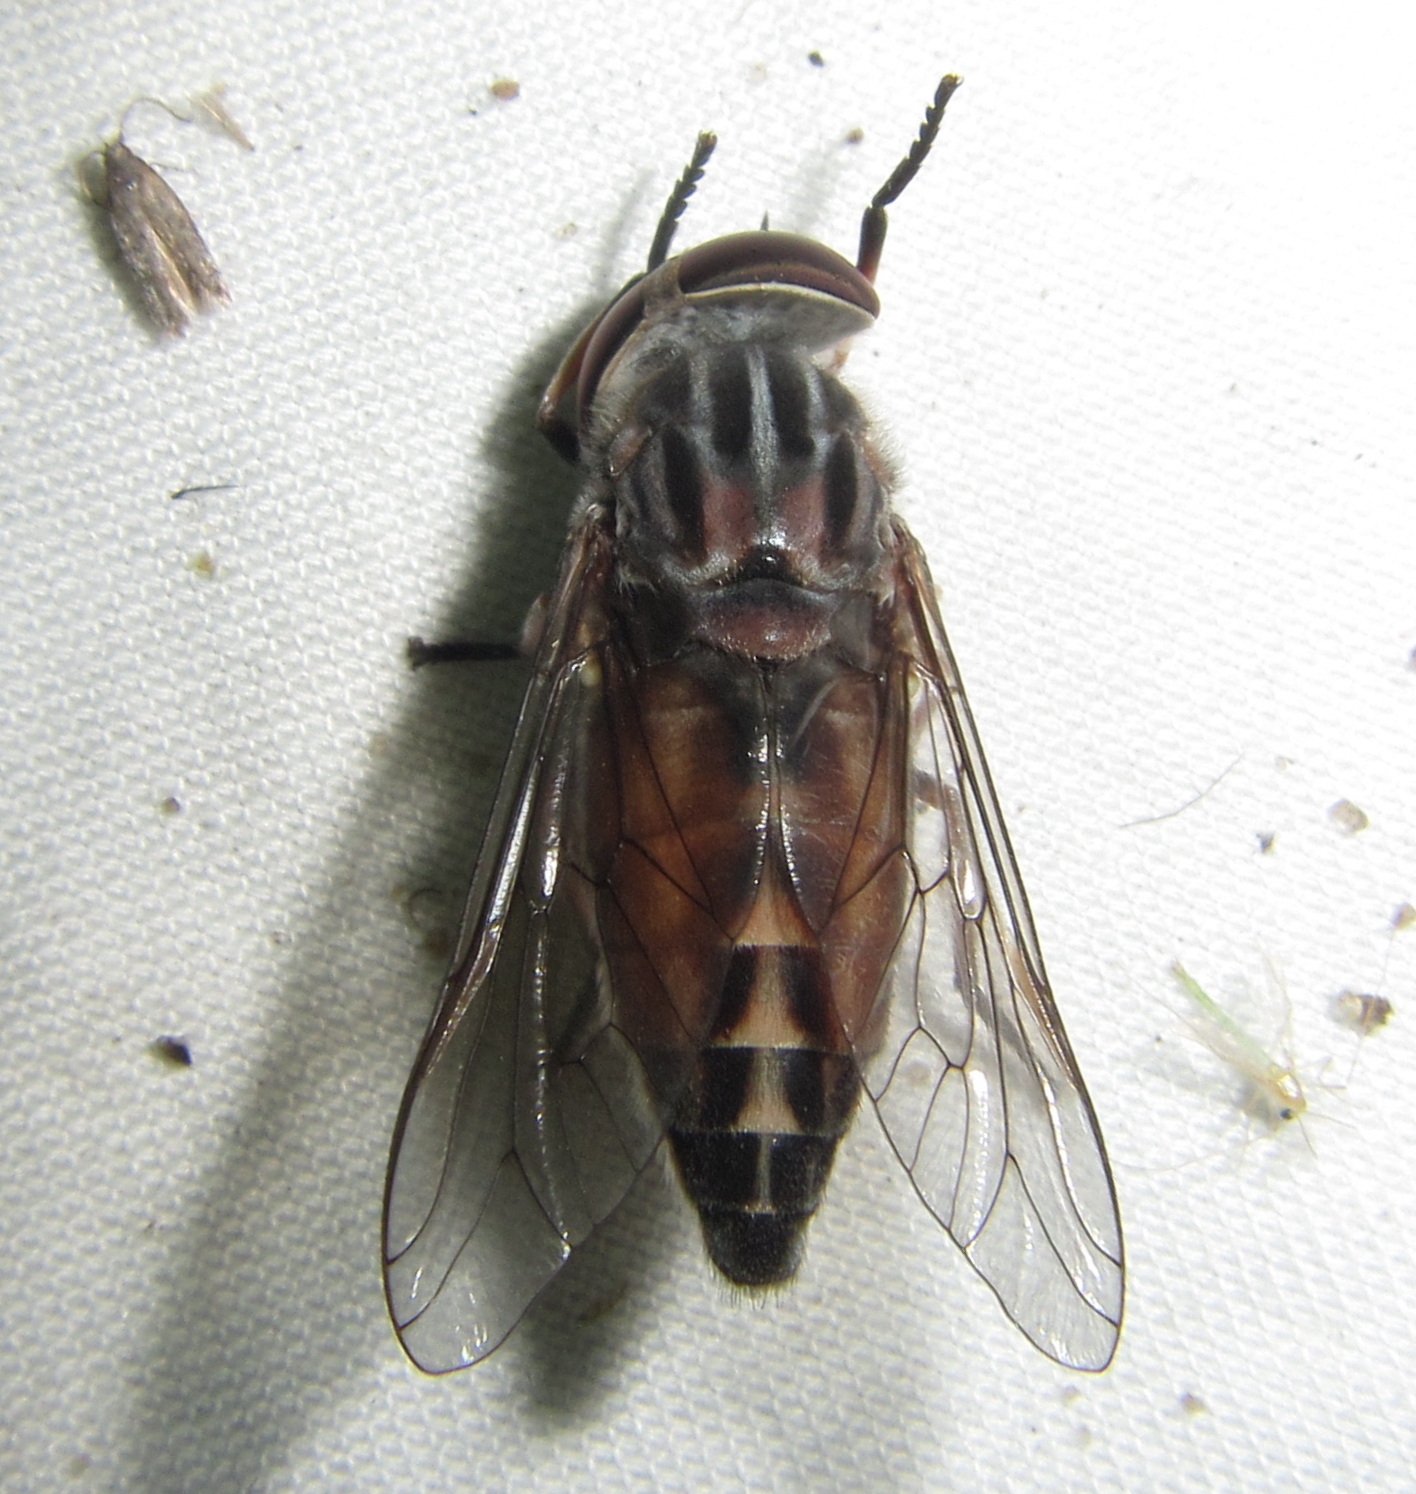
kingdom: Animalia
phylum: Arthropoda
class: Insecta
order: Diptera
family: Tabanidae
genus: Tabanus
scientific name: Tabanus taeniola
